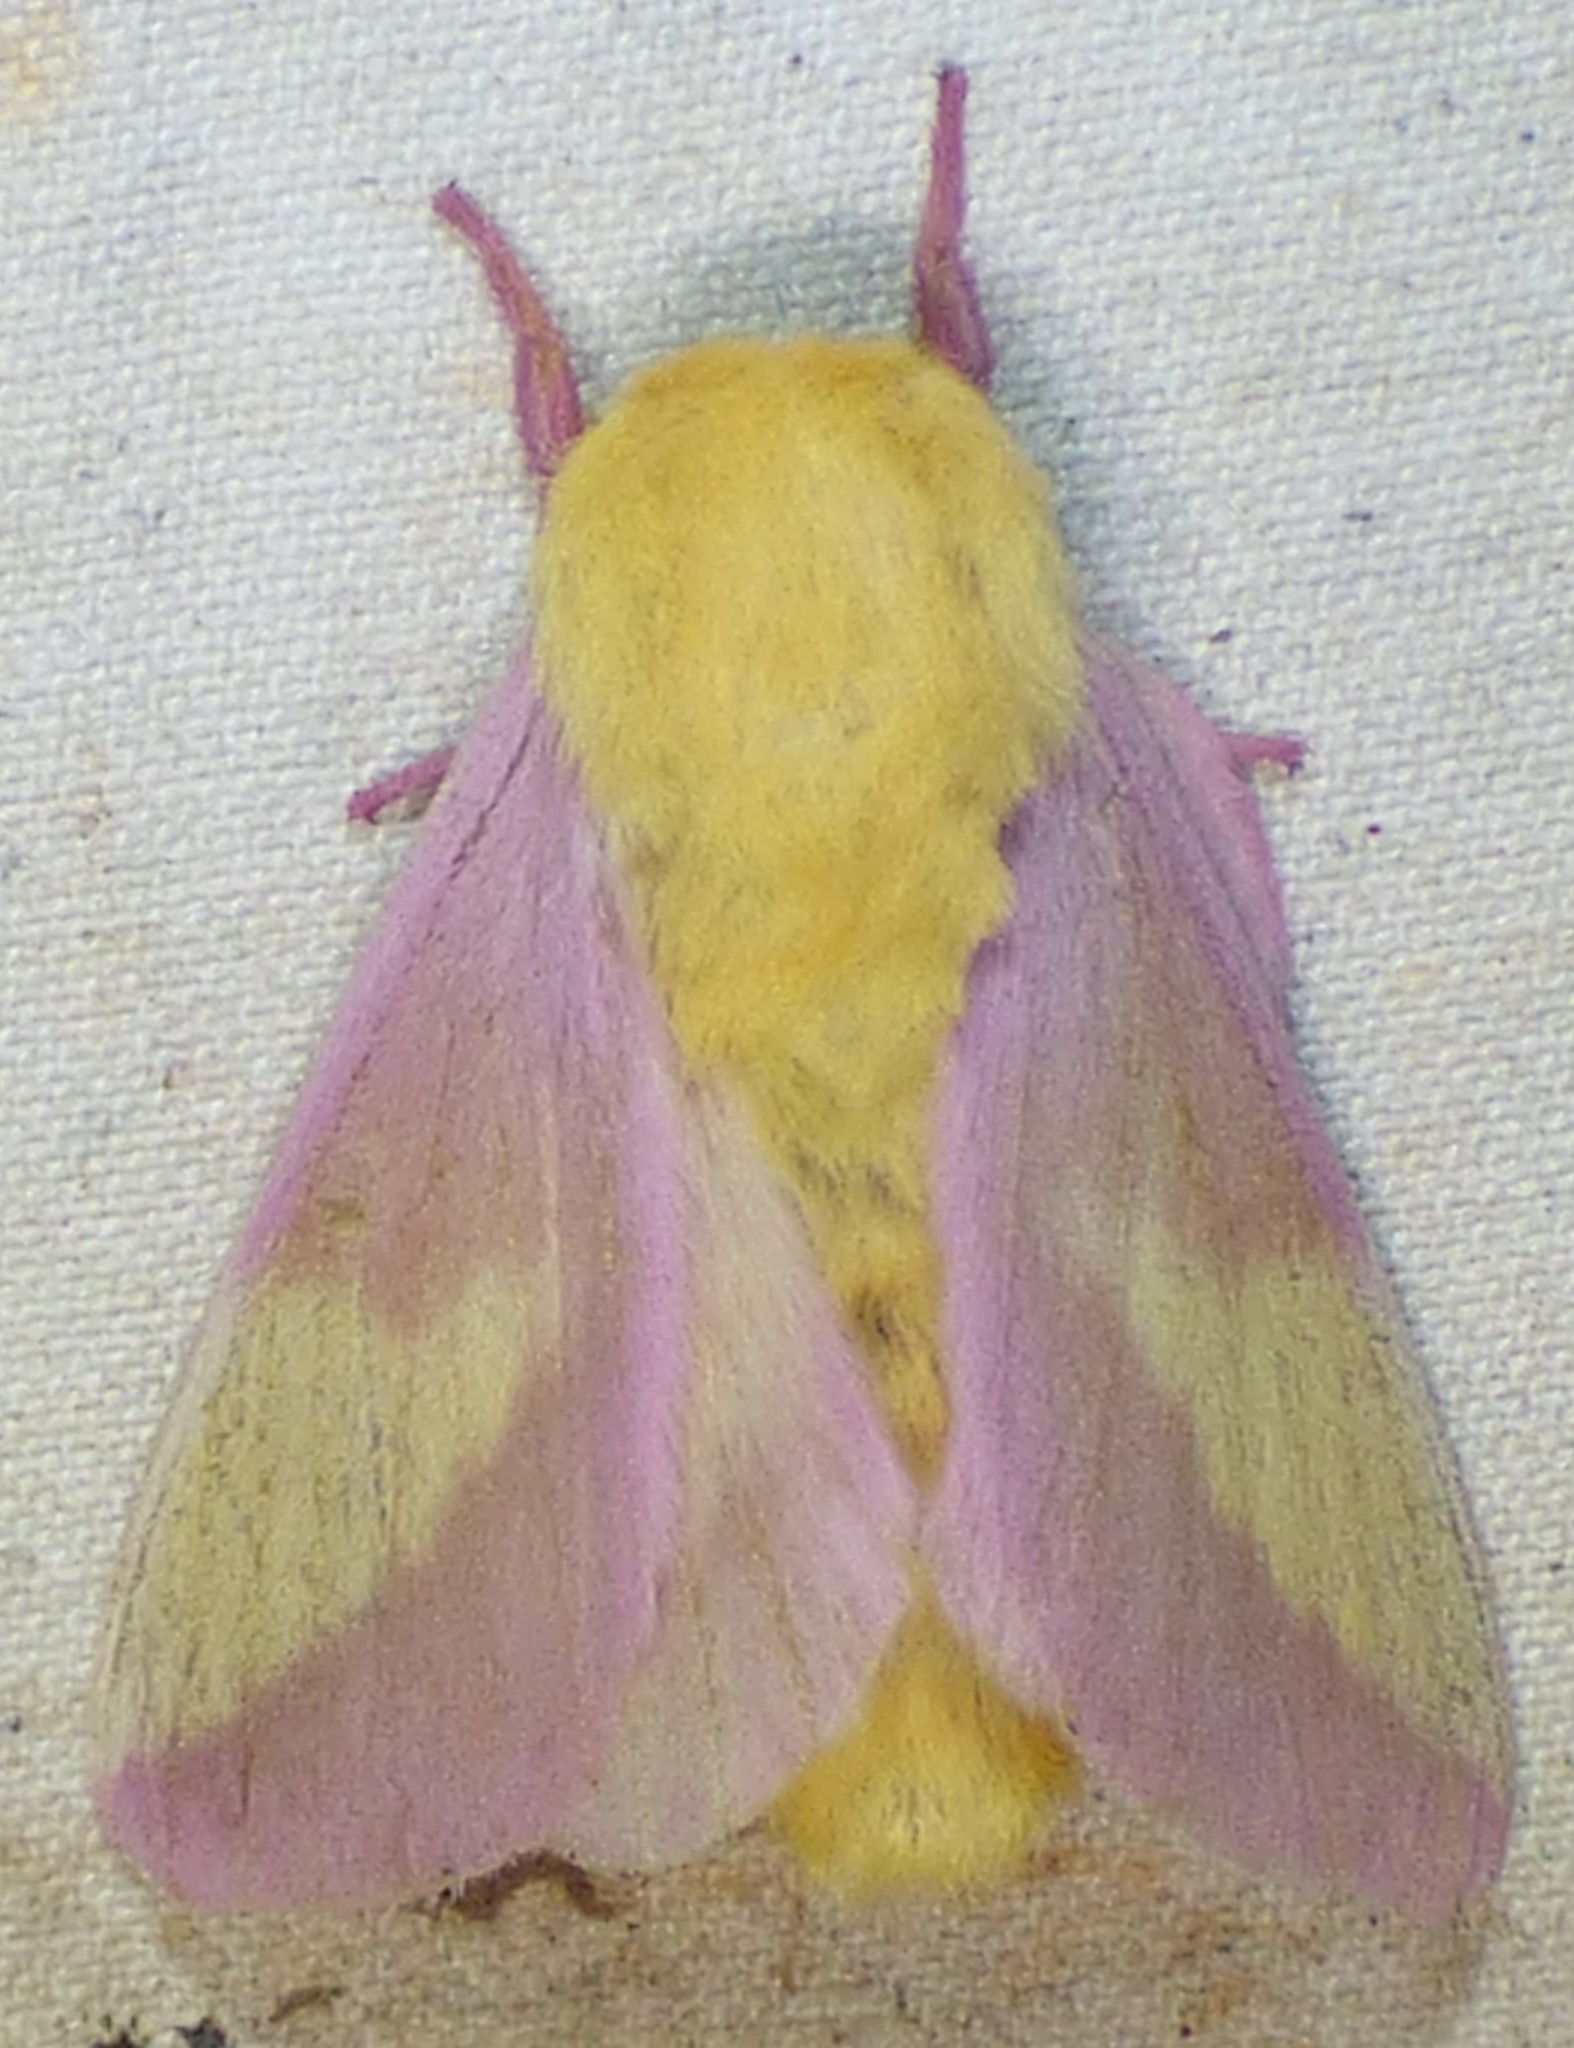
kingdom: Animalia
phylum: Arthropoda
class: Insecta
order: Lepidoptera
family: Saturniidae
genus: Dryocampa
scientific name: Dryocampa rubicunda
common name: Rosy maple moth
